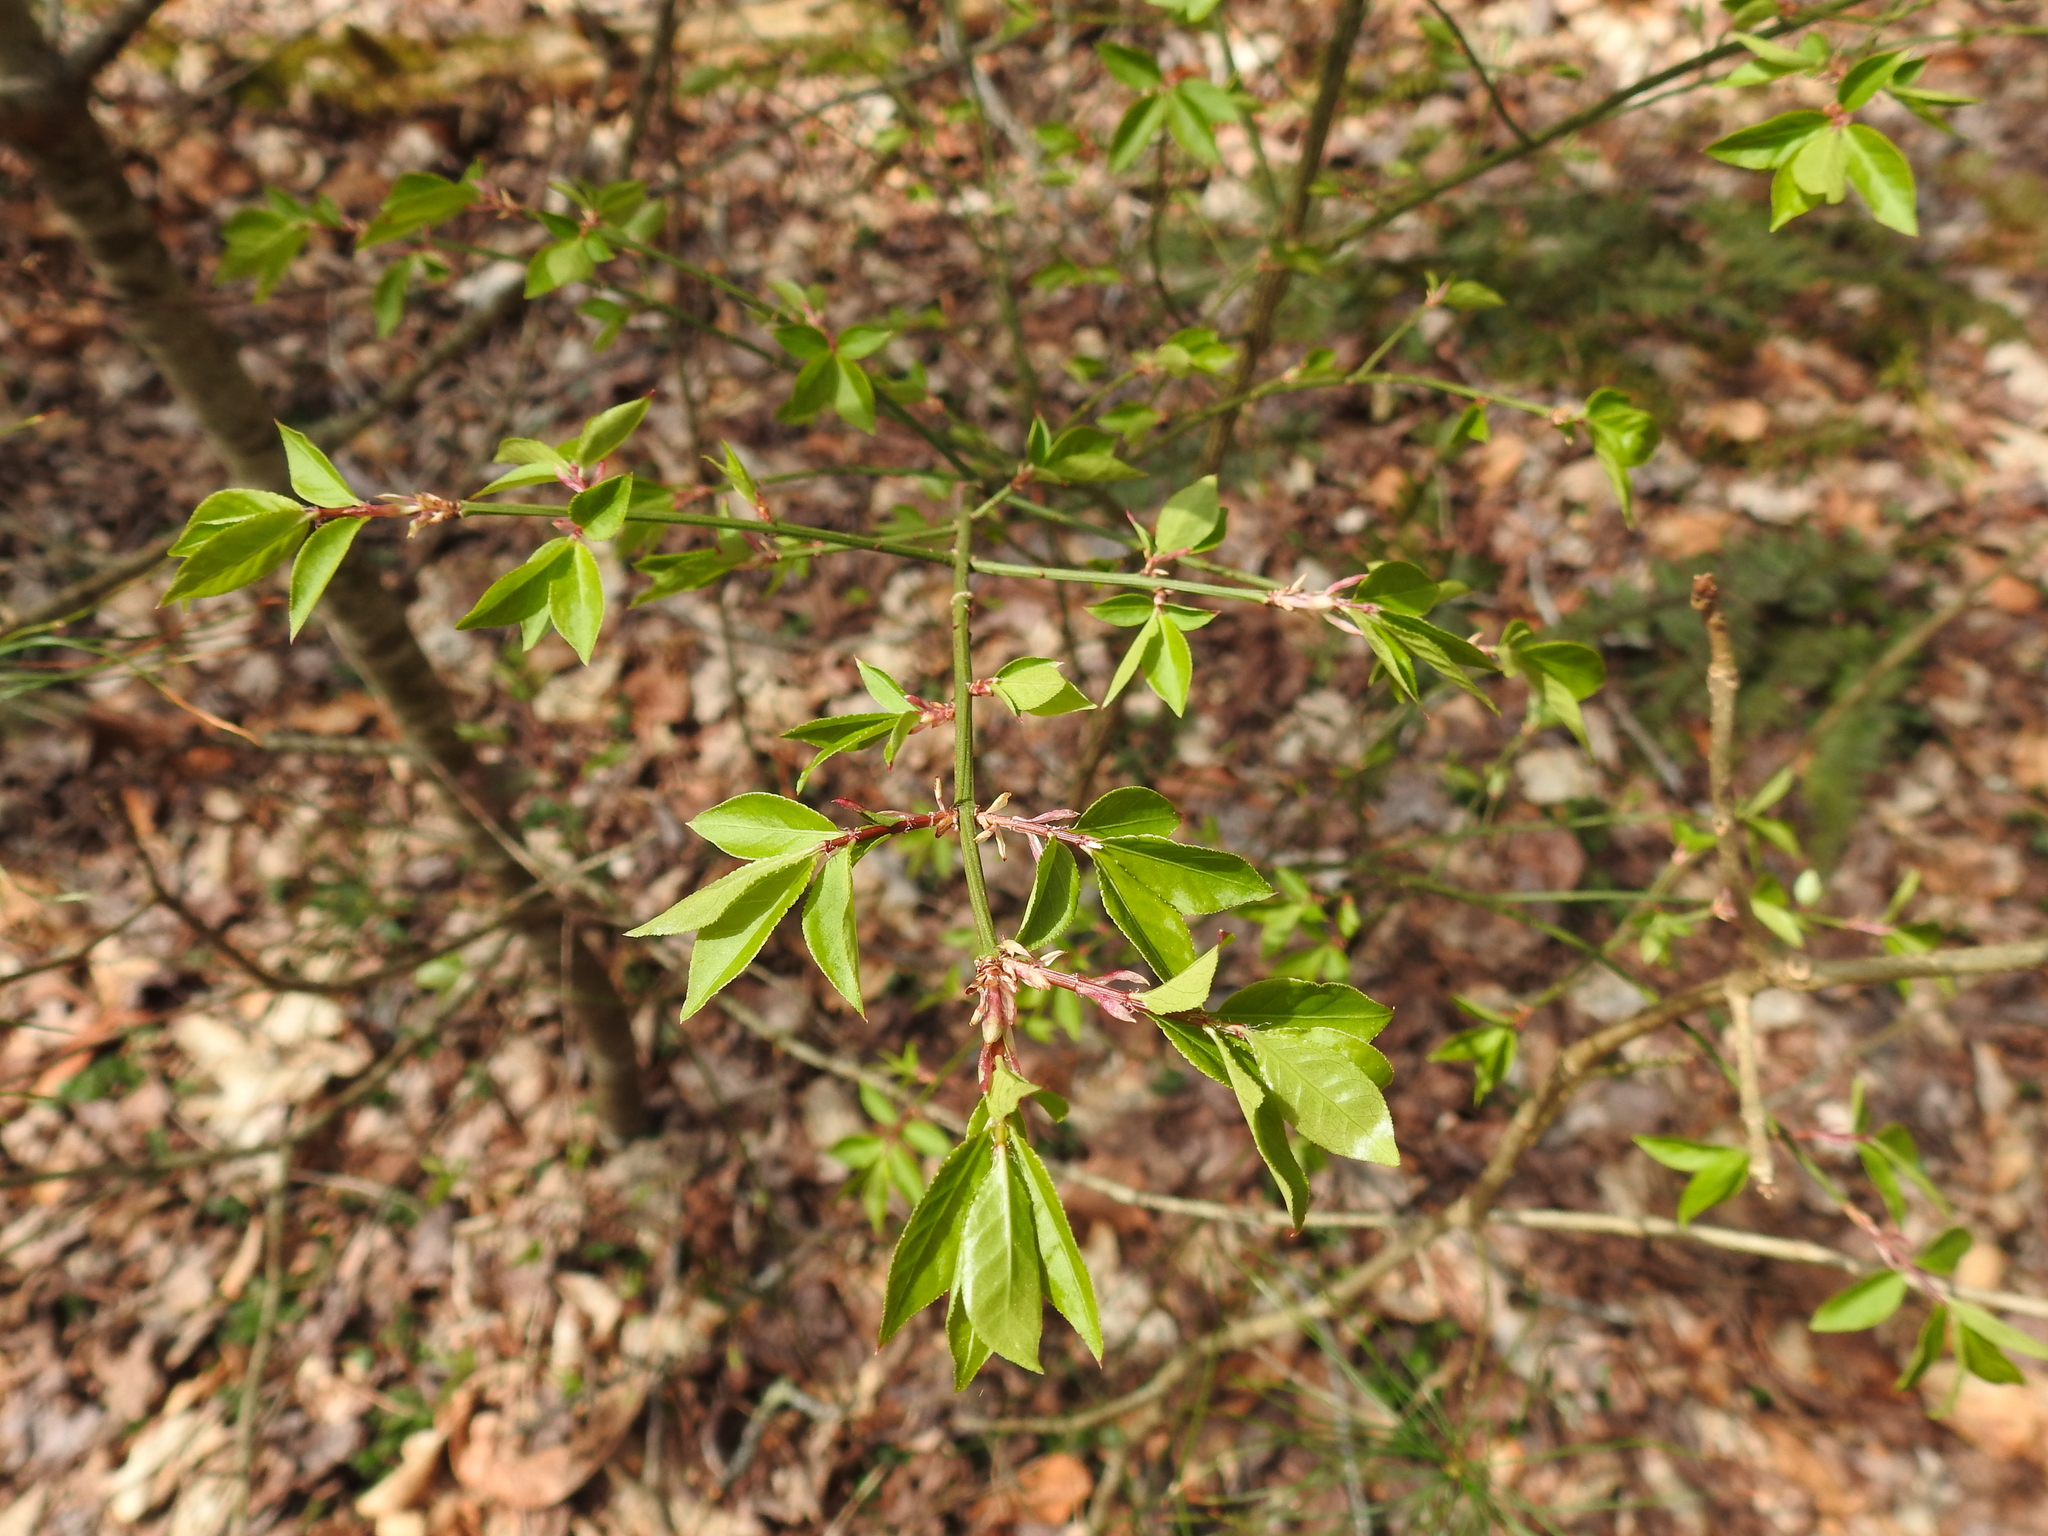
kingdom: Plantae
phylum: Tracheophyta
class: Magnoliopsida
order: Celastrales
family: Celastraceae
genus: Euonymus
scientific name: Euonymus alatus
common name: Winged euonymus
